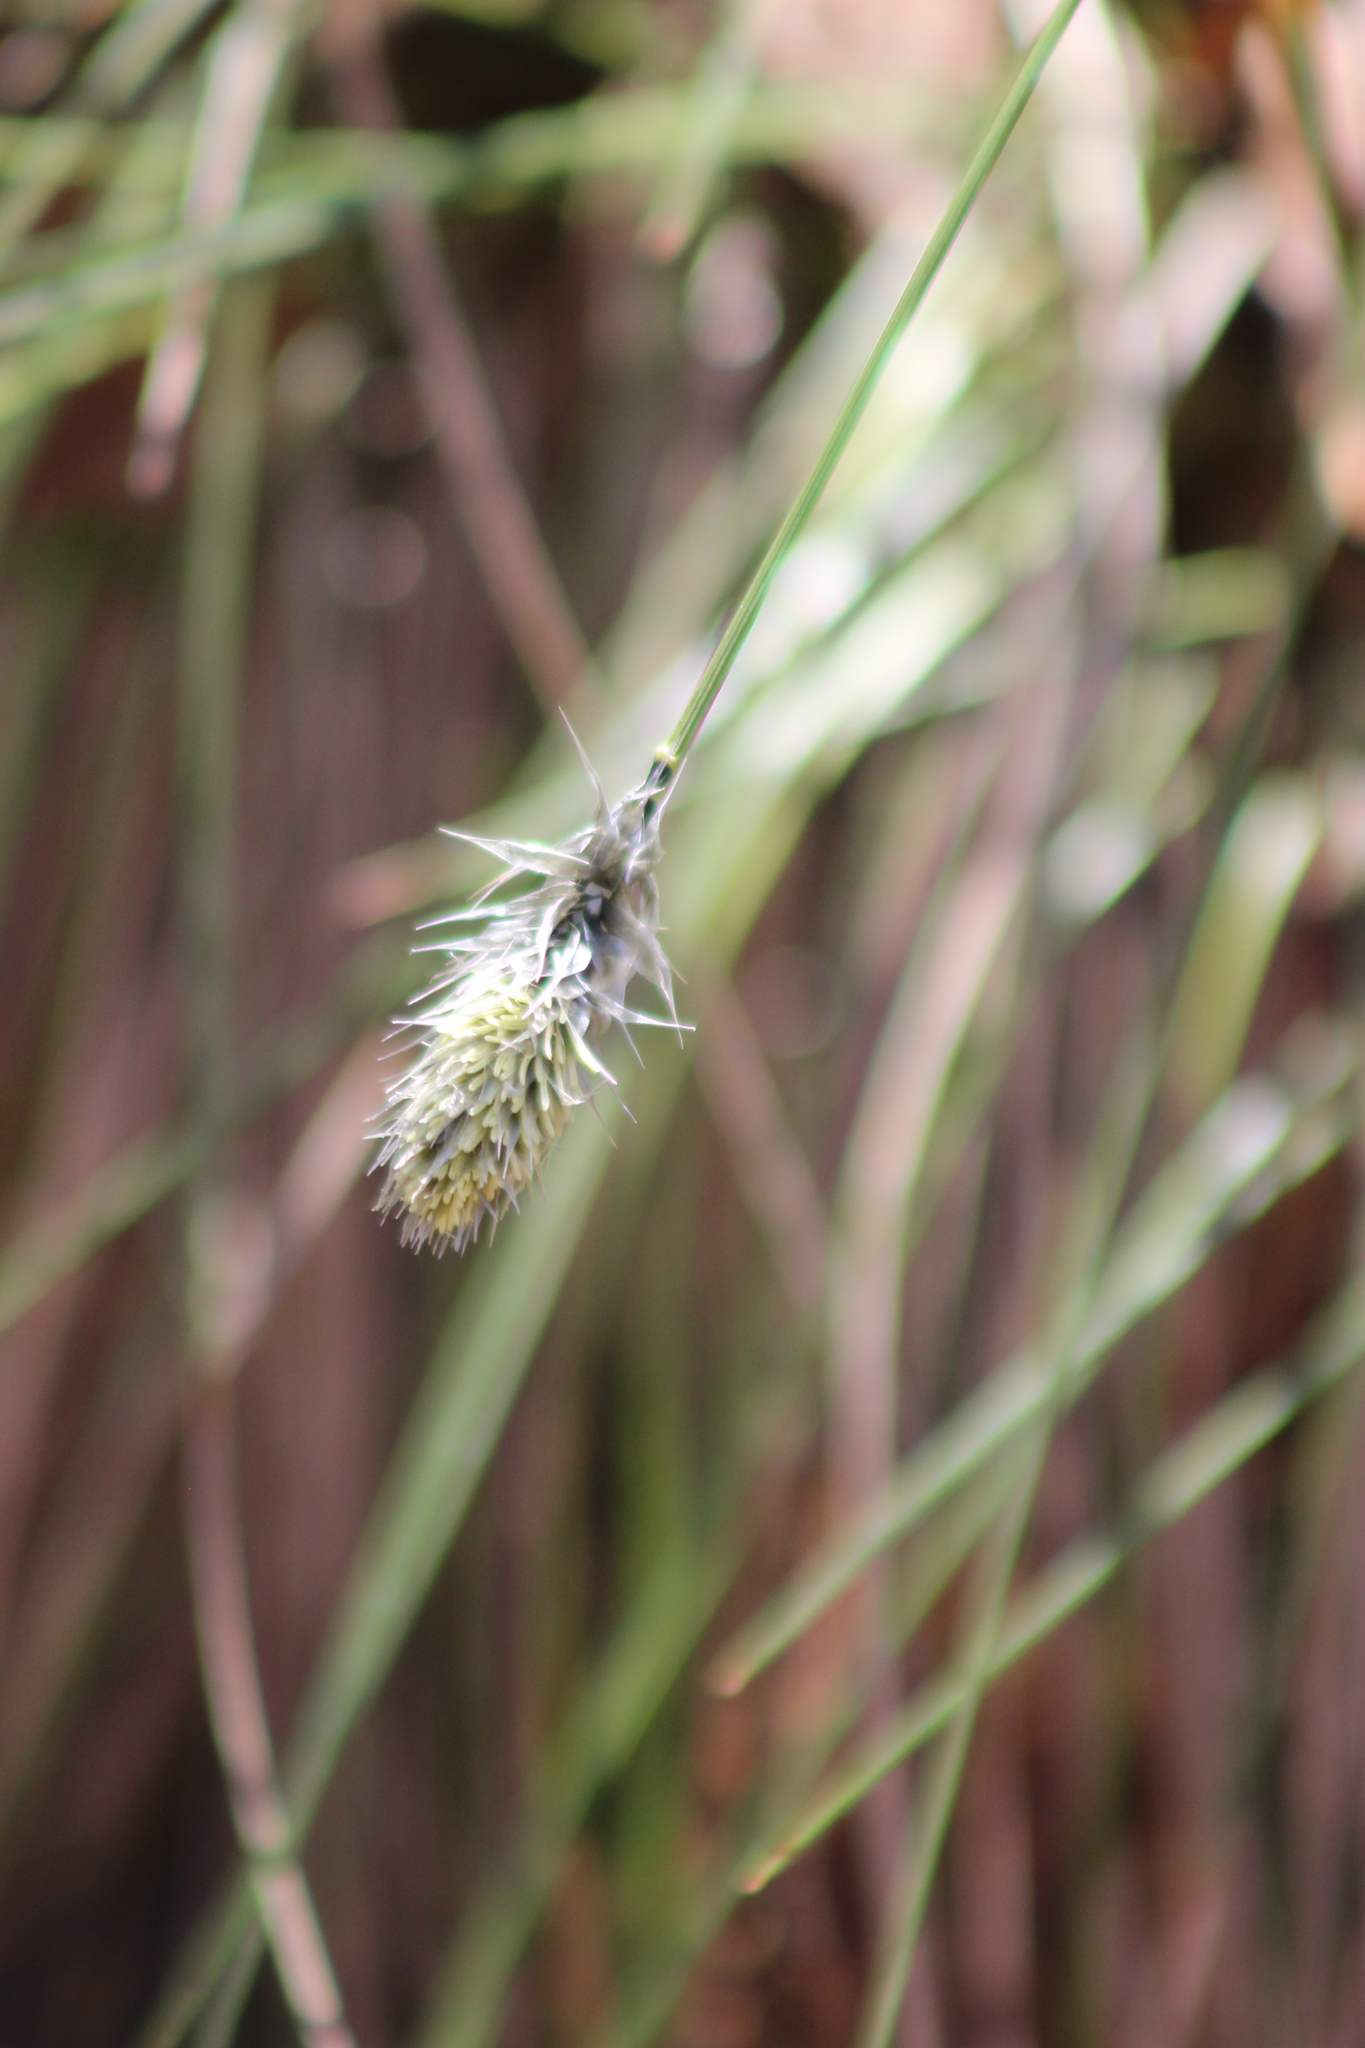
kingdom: Plantae
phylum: Tracheophyta
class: Liliopsida
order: Poales
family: Cyperaceae
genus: Eriophorum
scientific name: Eriophorum vaginatum
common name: Hare's-tail cottongrass
